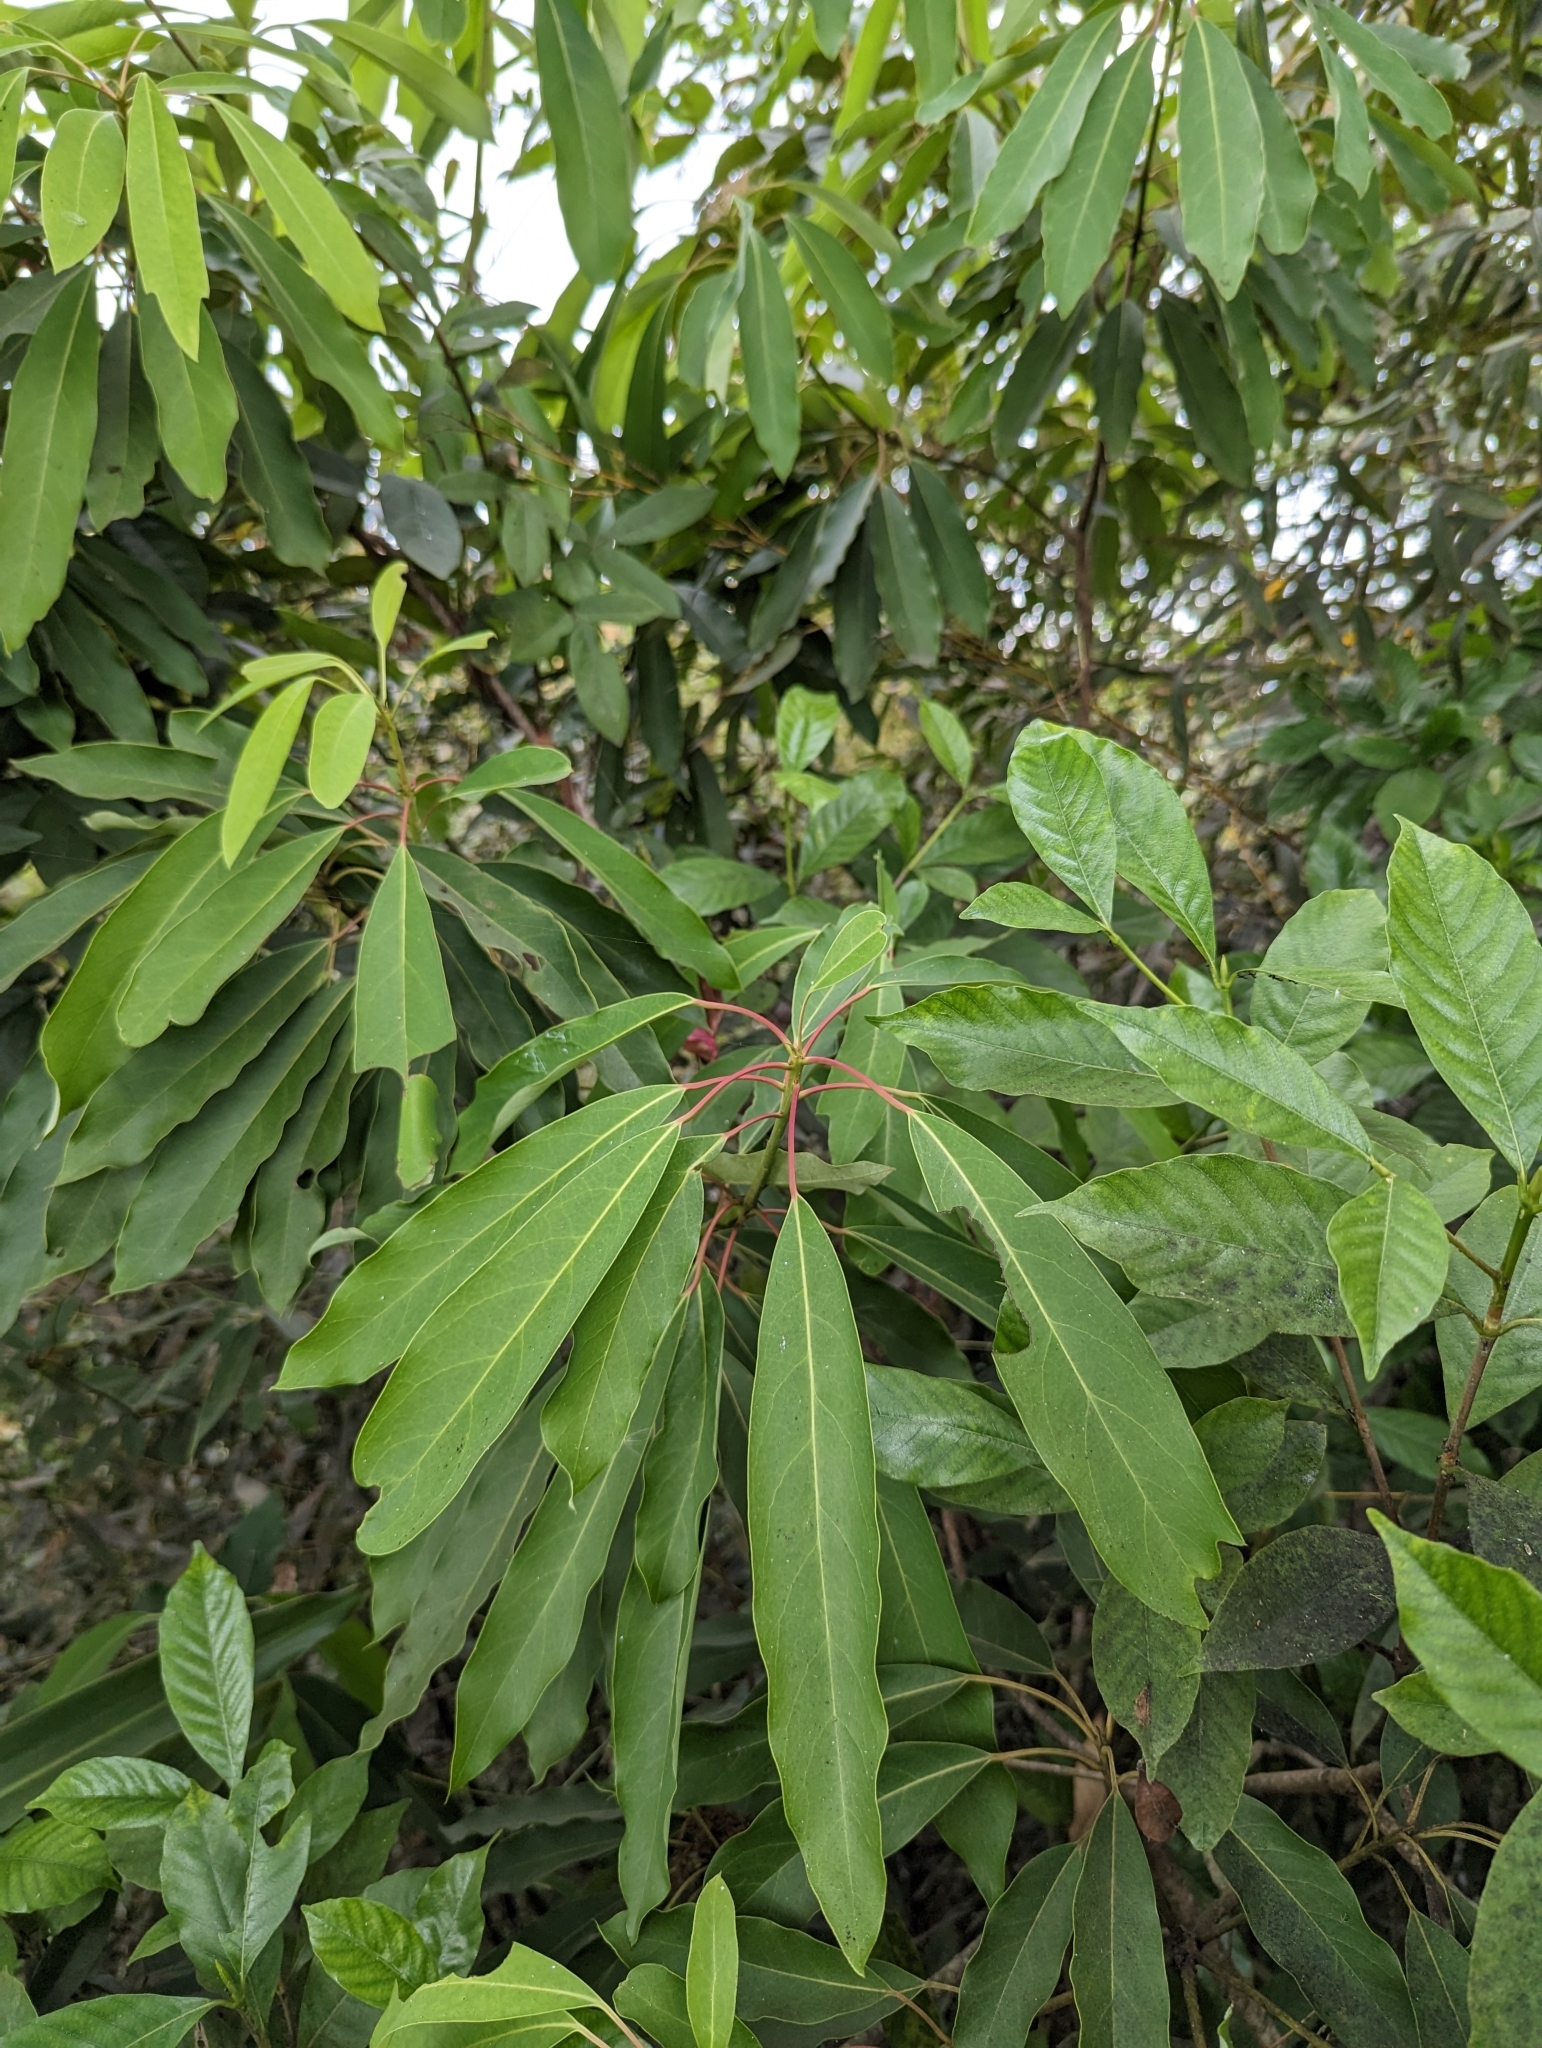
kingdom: Plantae
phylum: Tracheophyta
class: Magnoliopsida
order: Saxifragales
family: Daphniphyllaceae
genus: Daphniphyllum
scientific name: Daphniphyllum pentandrum
